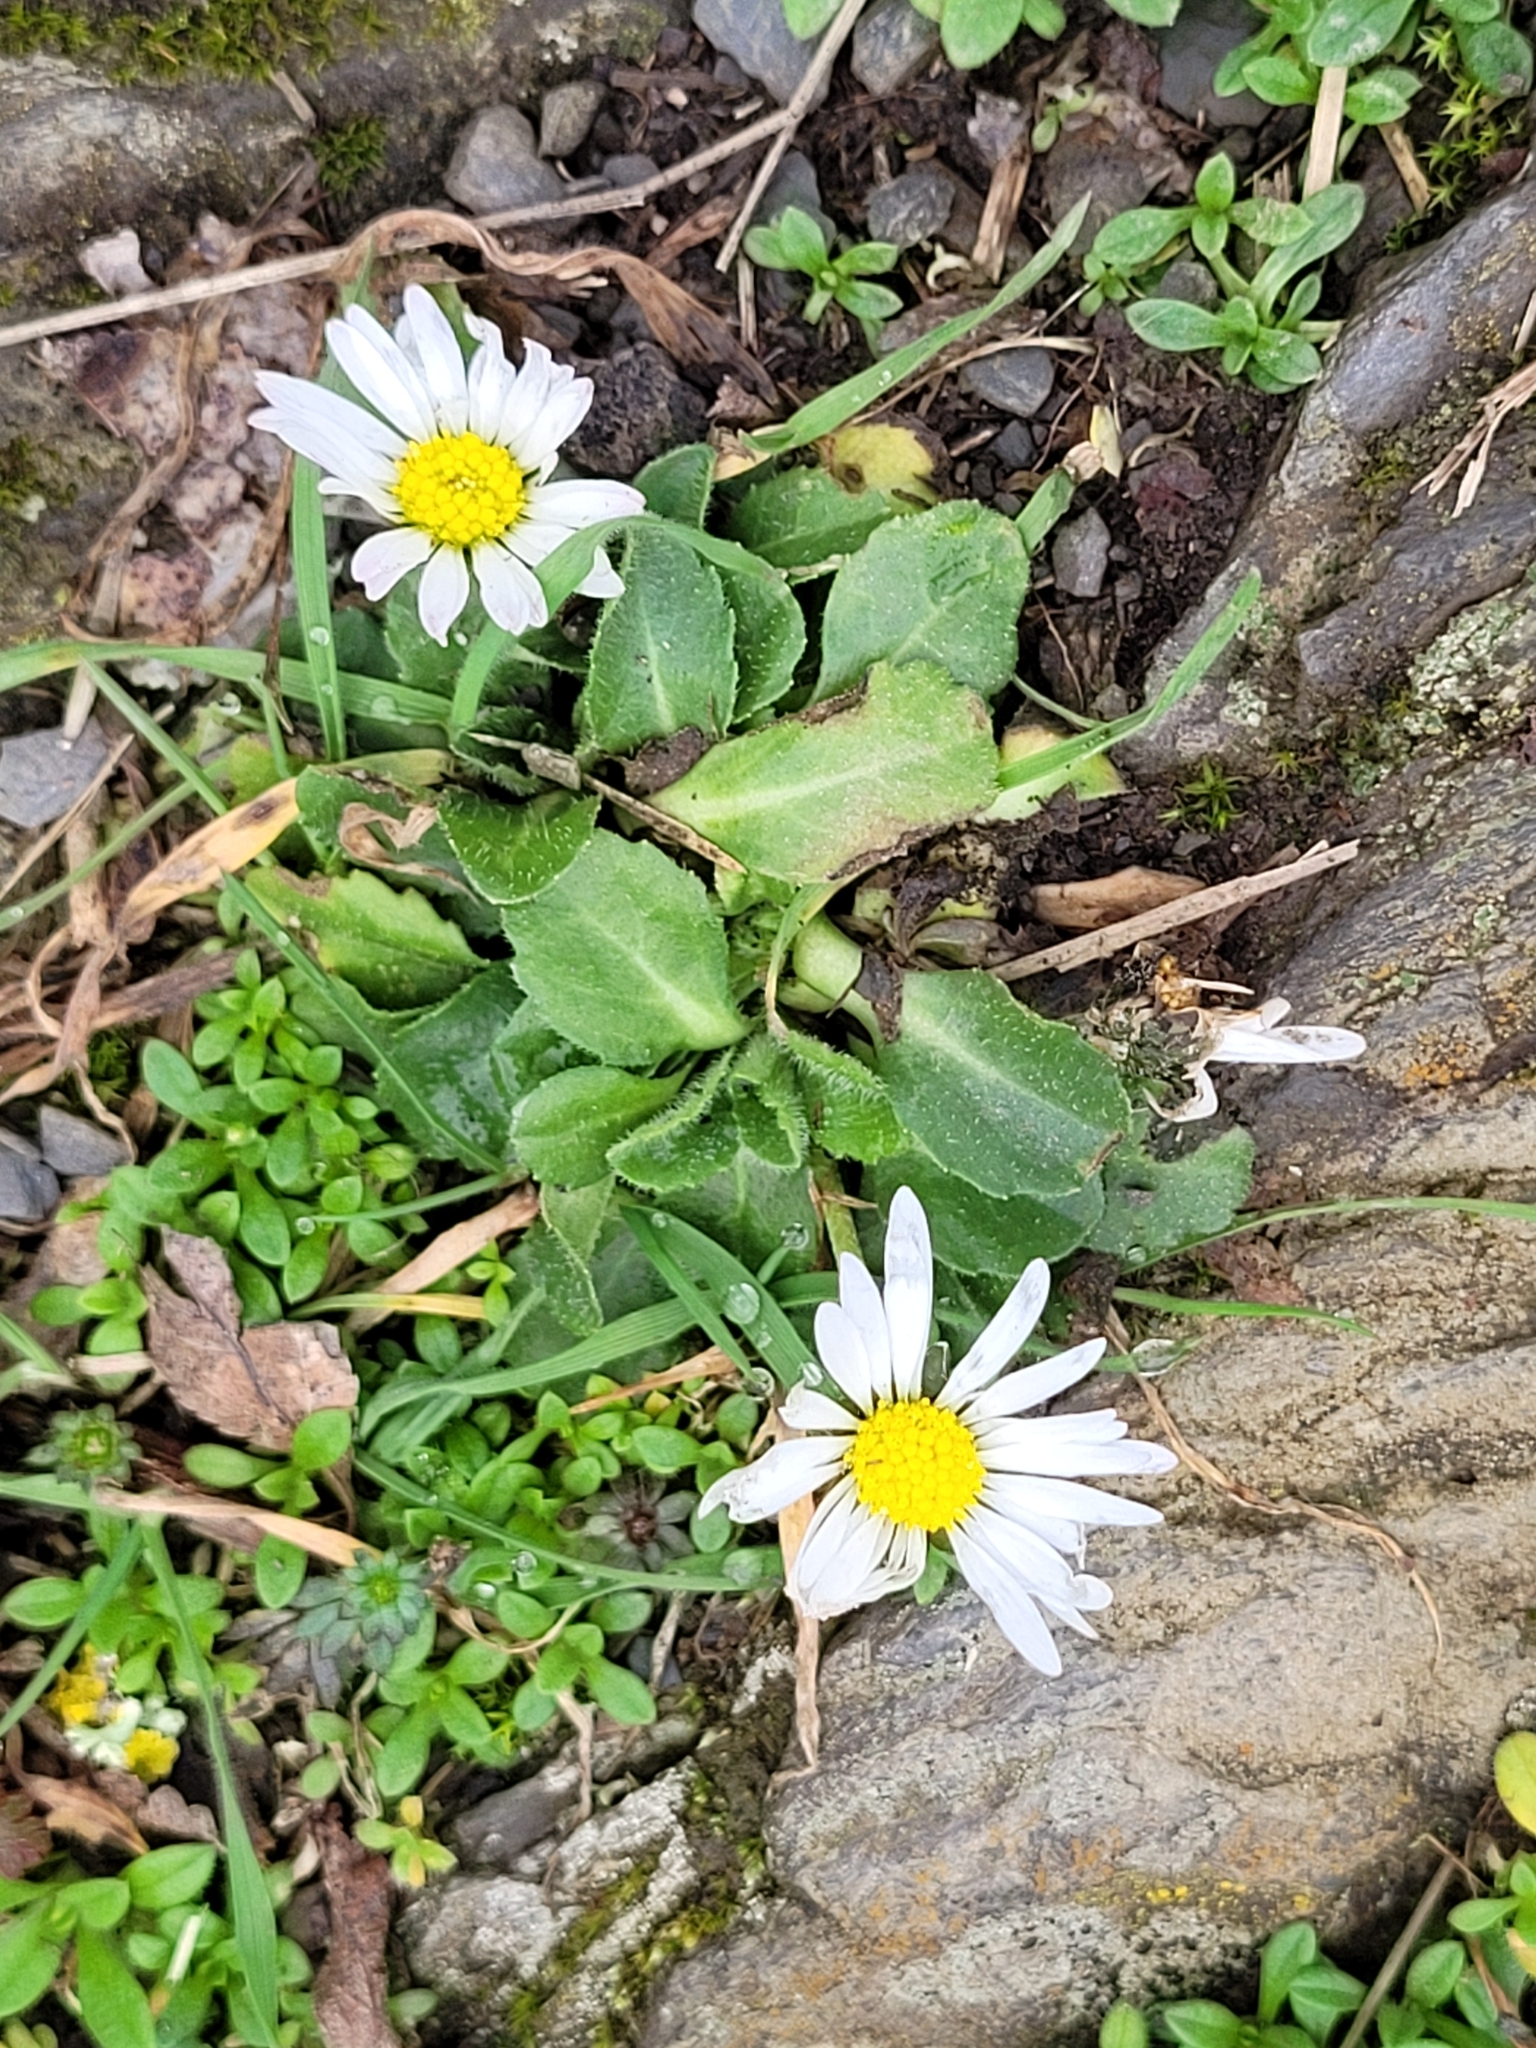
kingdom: Plantae
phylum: Tracheophyta
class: Magnoliopsida
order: Asterales
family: Asteraceae
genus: Bellis
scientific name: Bellis perennis
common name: Lawndaisy
